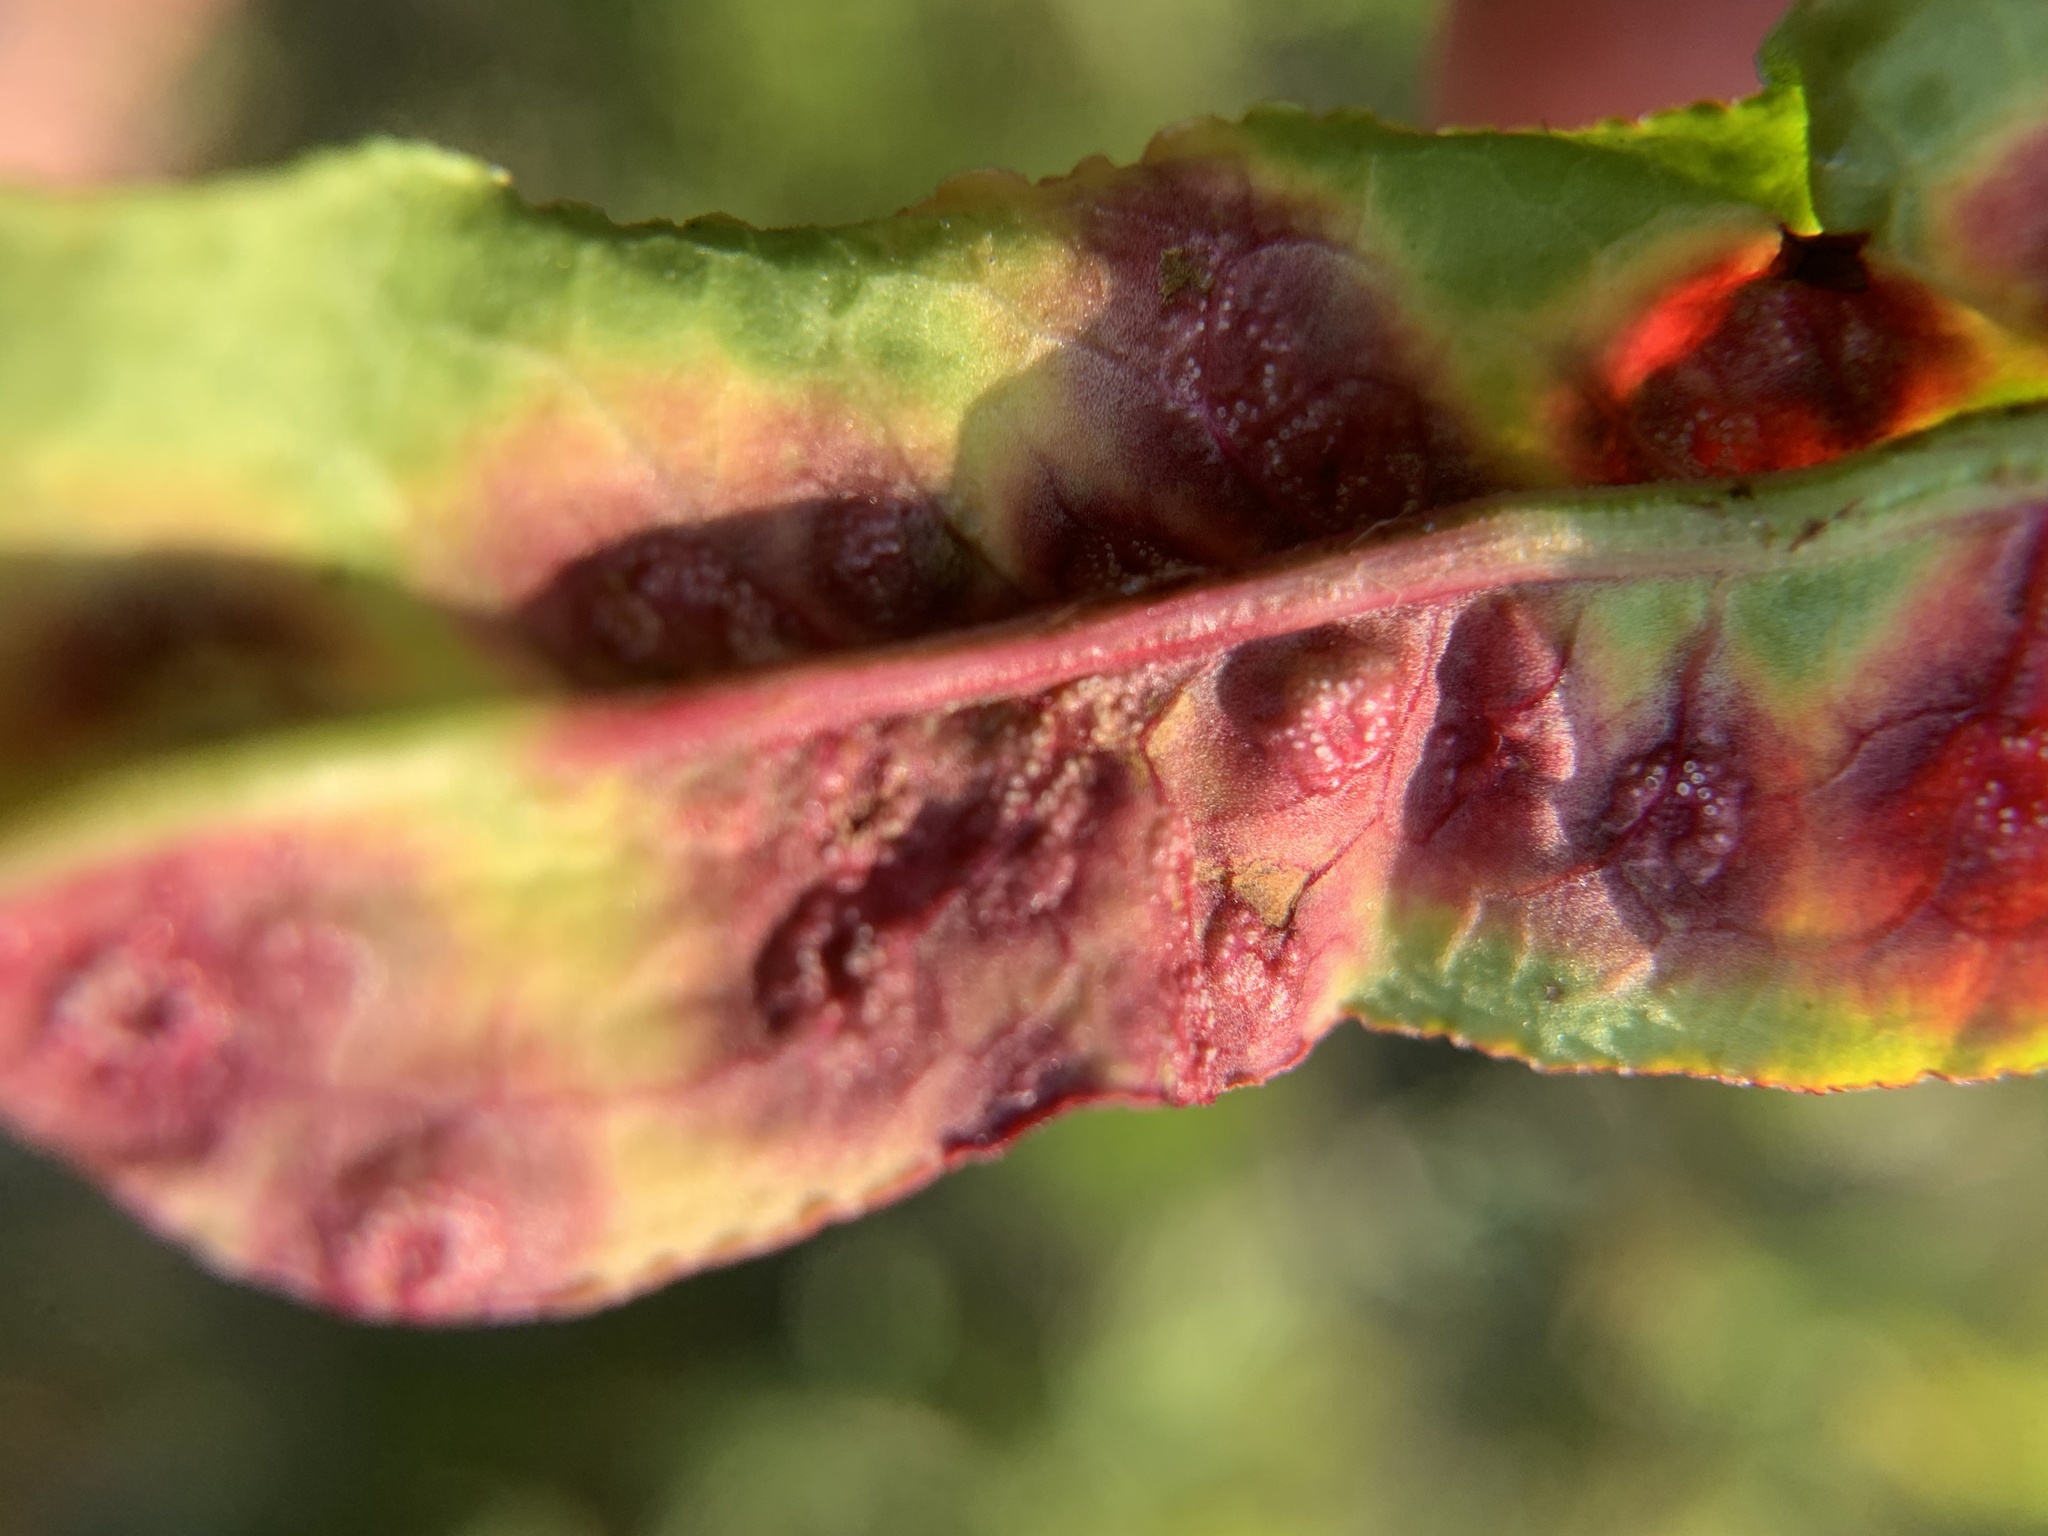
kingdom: Fungi
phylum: Basidiomycota
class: Pucciniomycetes
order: Pucciniales
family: Pucciniaceae
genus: Puccinia
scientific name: Puccinia phragmitis
